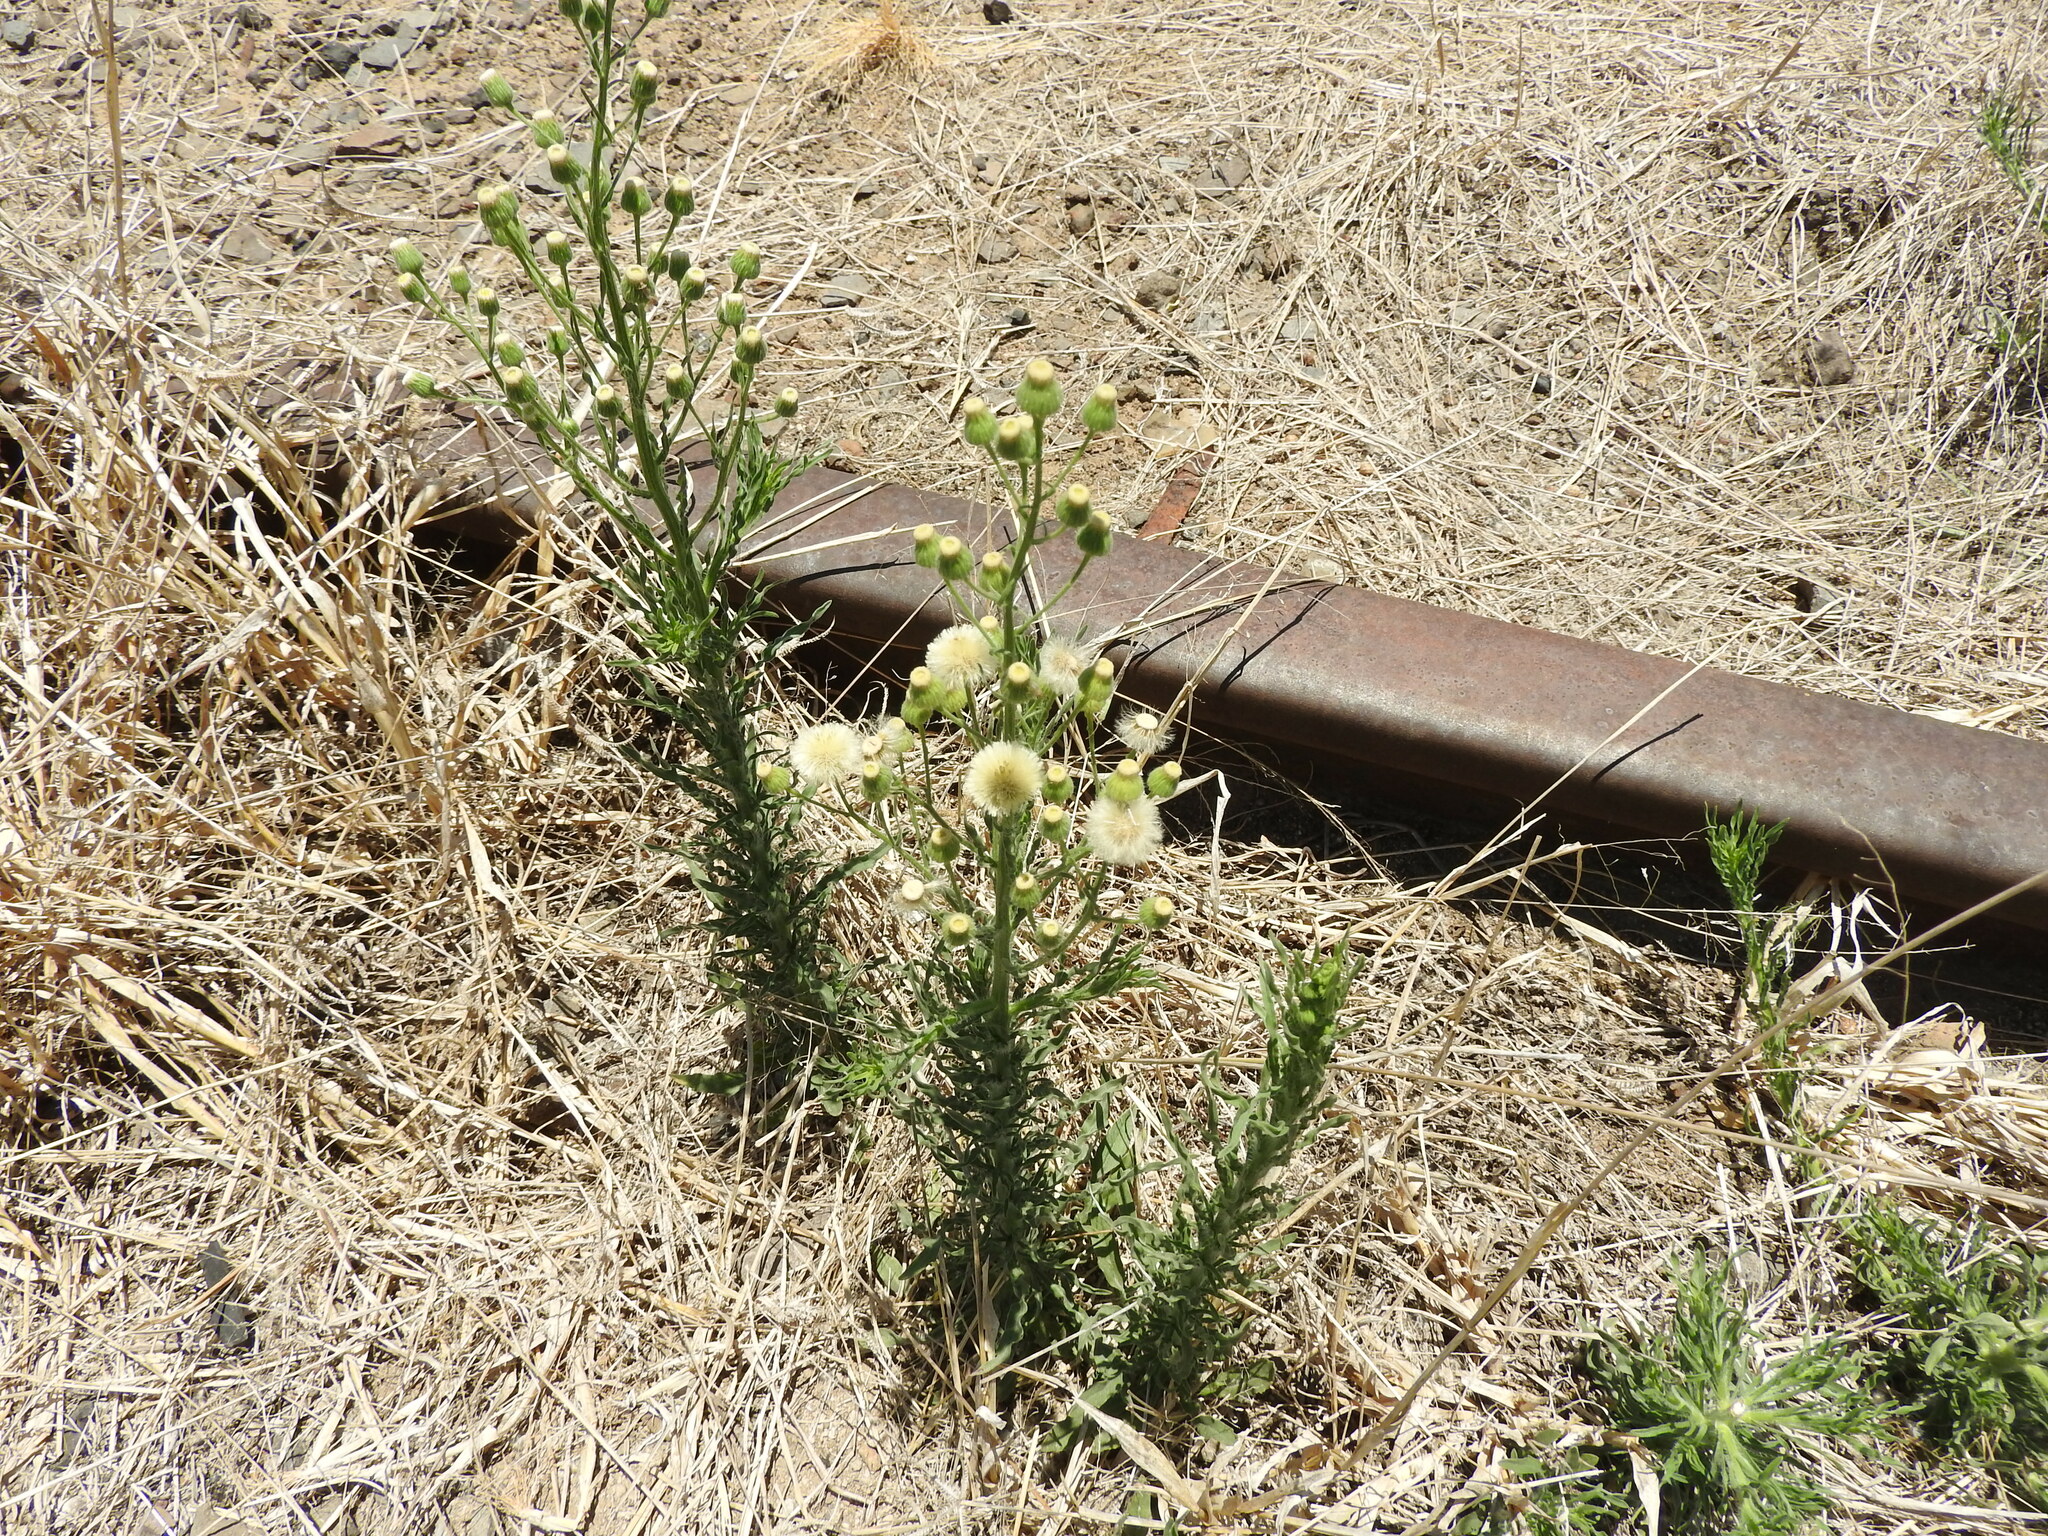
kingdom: Plantae
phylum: Tracheophyta
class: Magnoliopsida
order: Asterales
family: Asteraceae
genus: Erigeron
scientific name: Erigeron bonariensis
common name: Argentine fleabane
